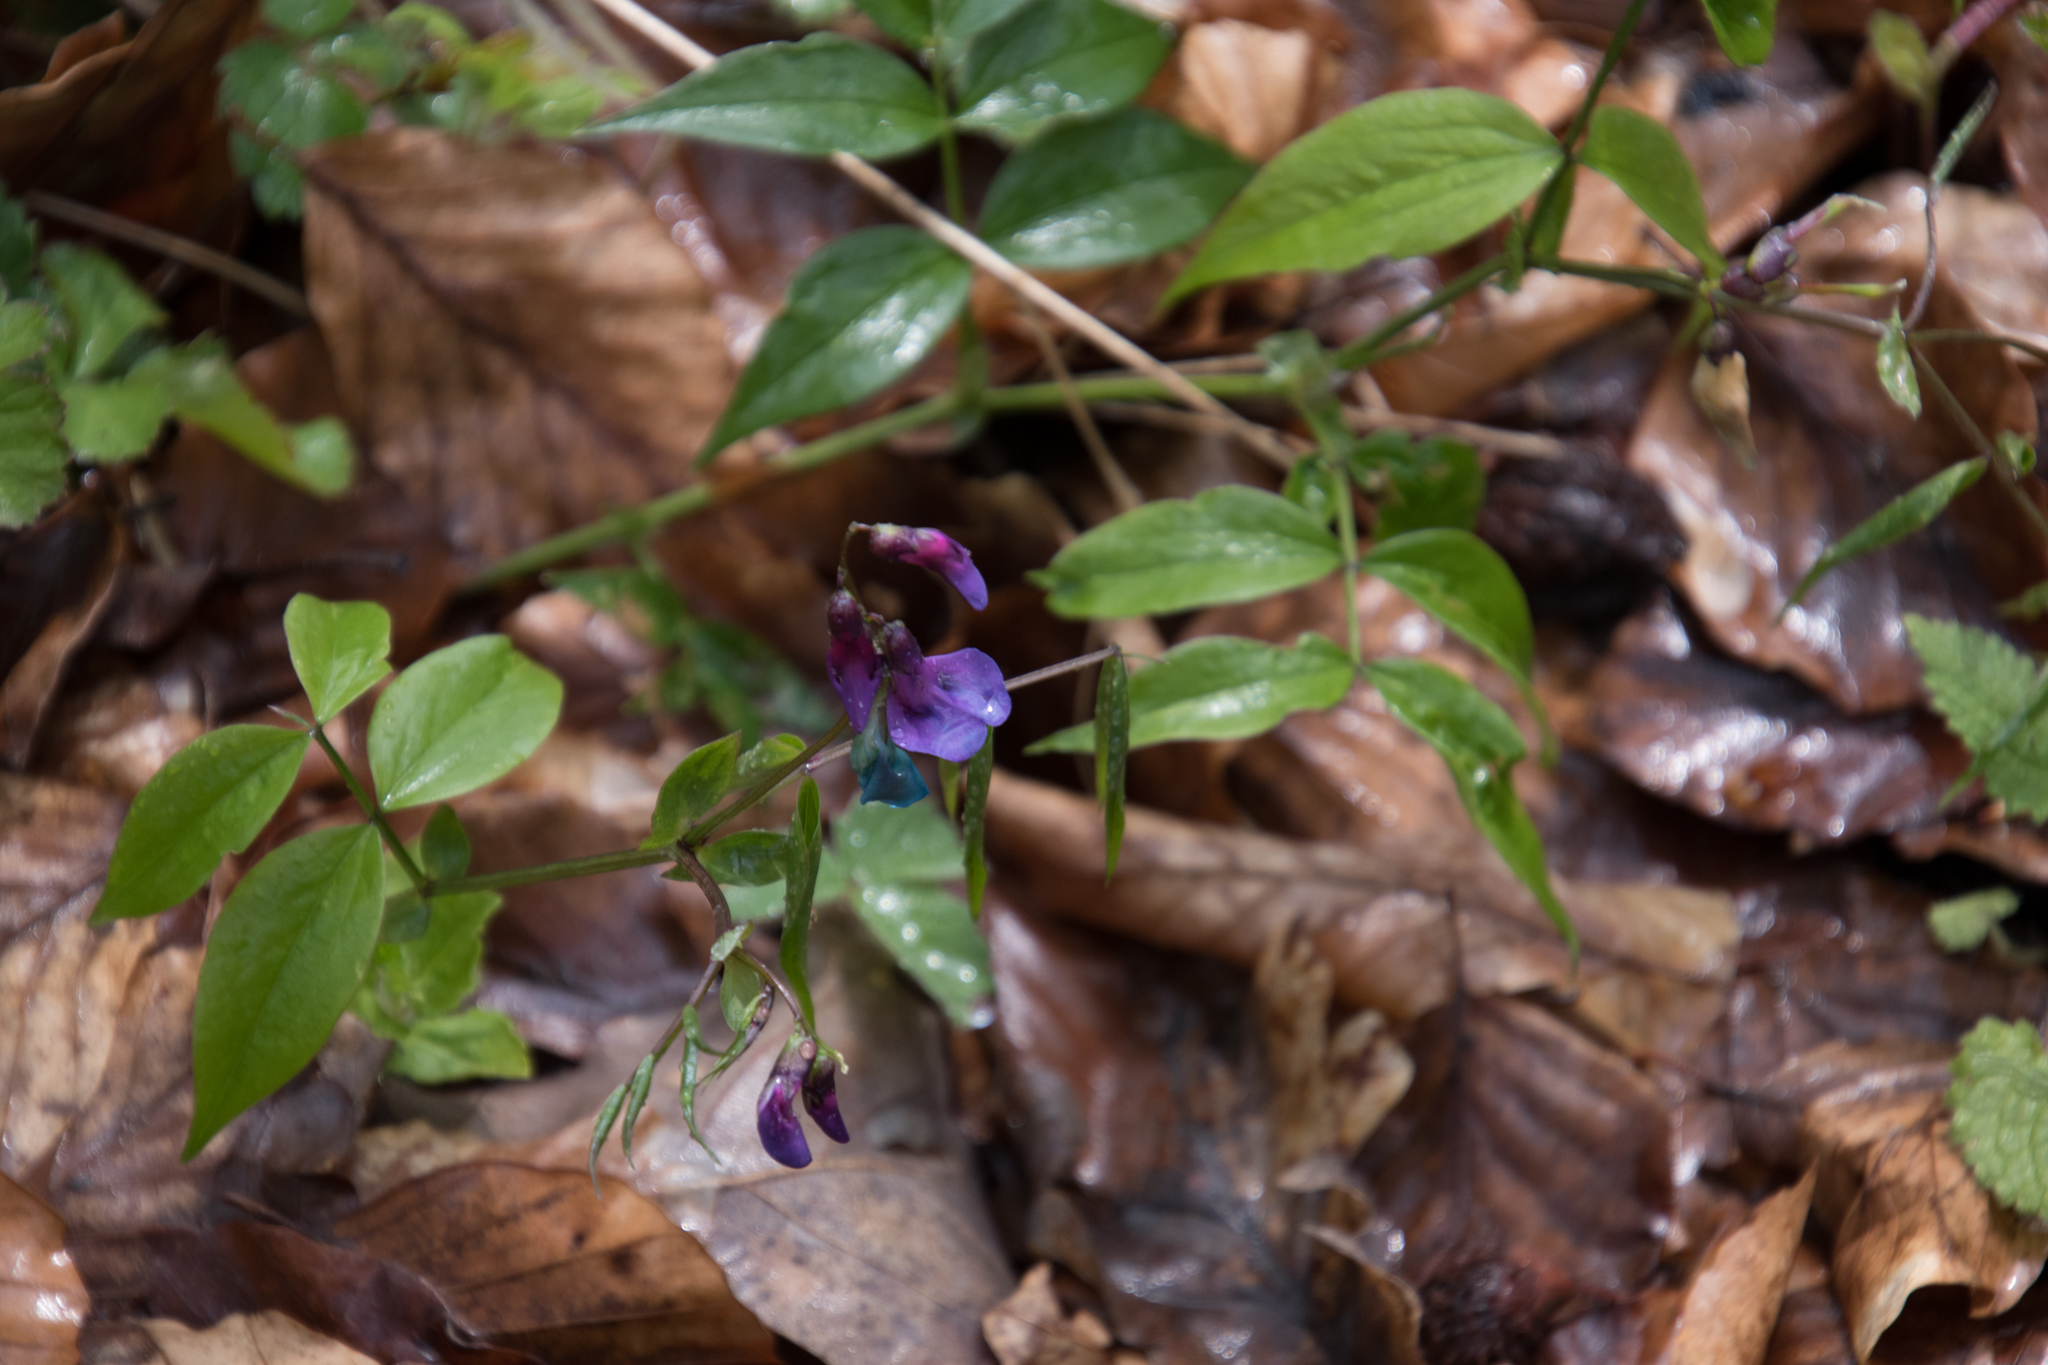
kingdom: Plantae
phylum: Tracheophyta
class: Magnoliopsida
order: Fabales
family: Fabaceae
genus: Lathyrus
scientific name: Lathyrus vernus
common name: Spring pea
